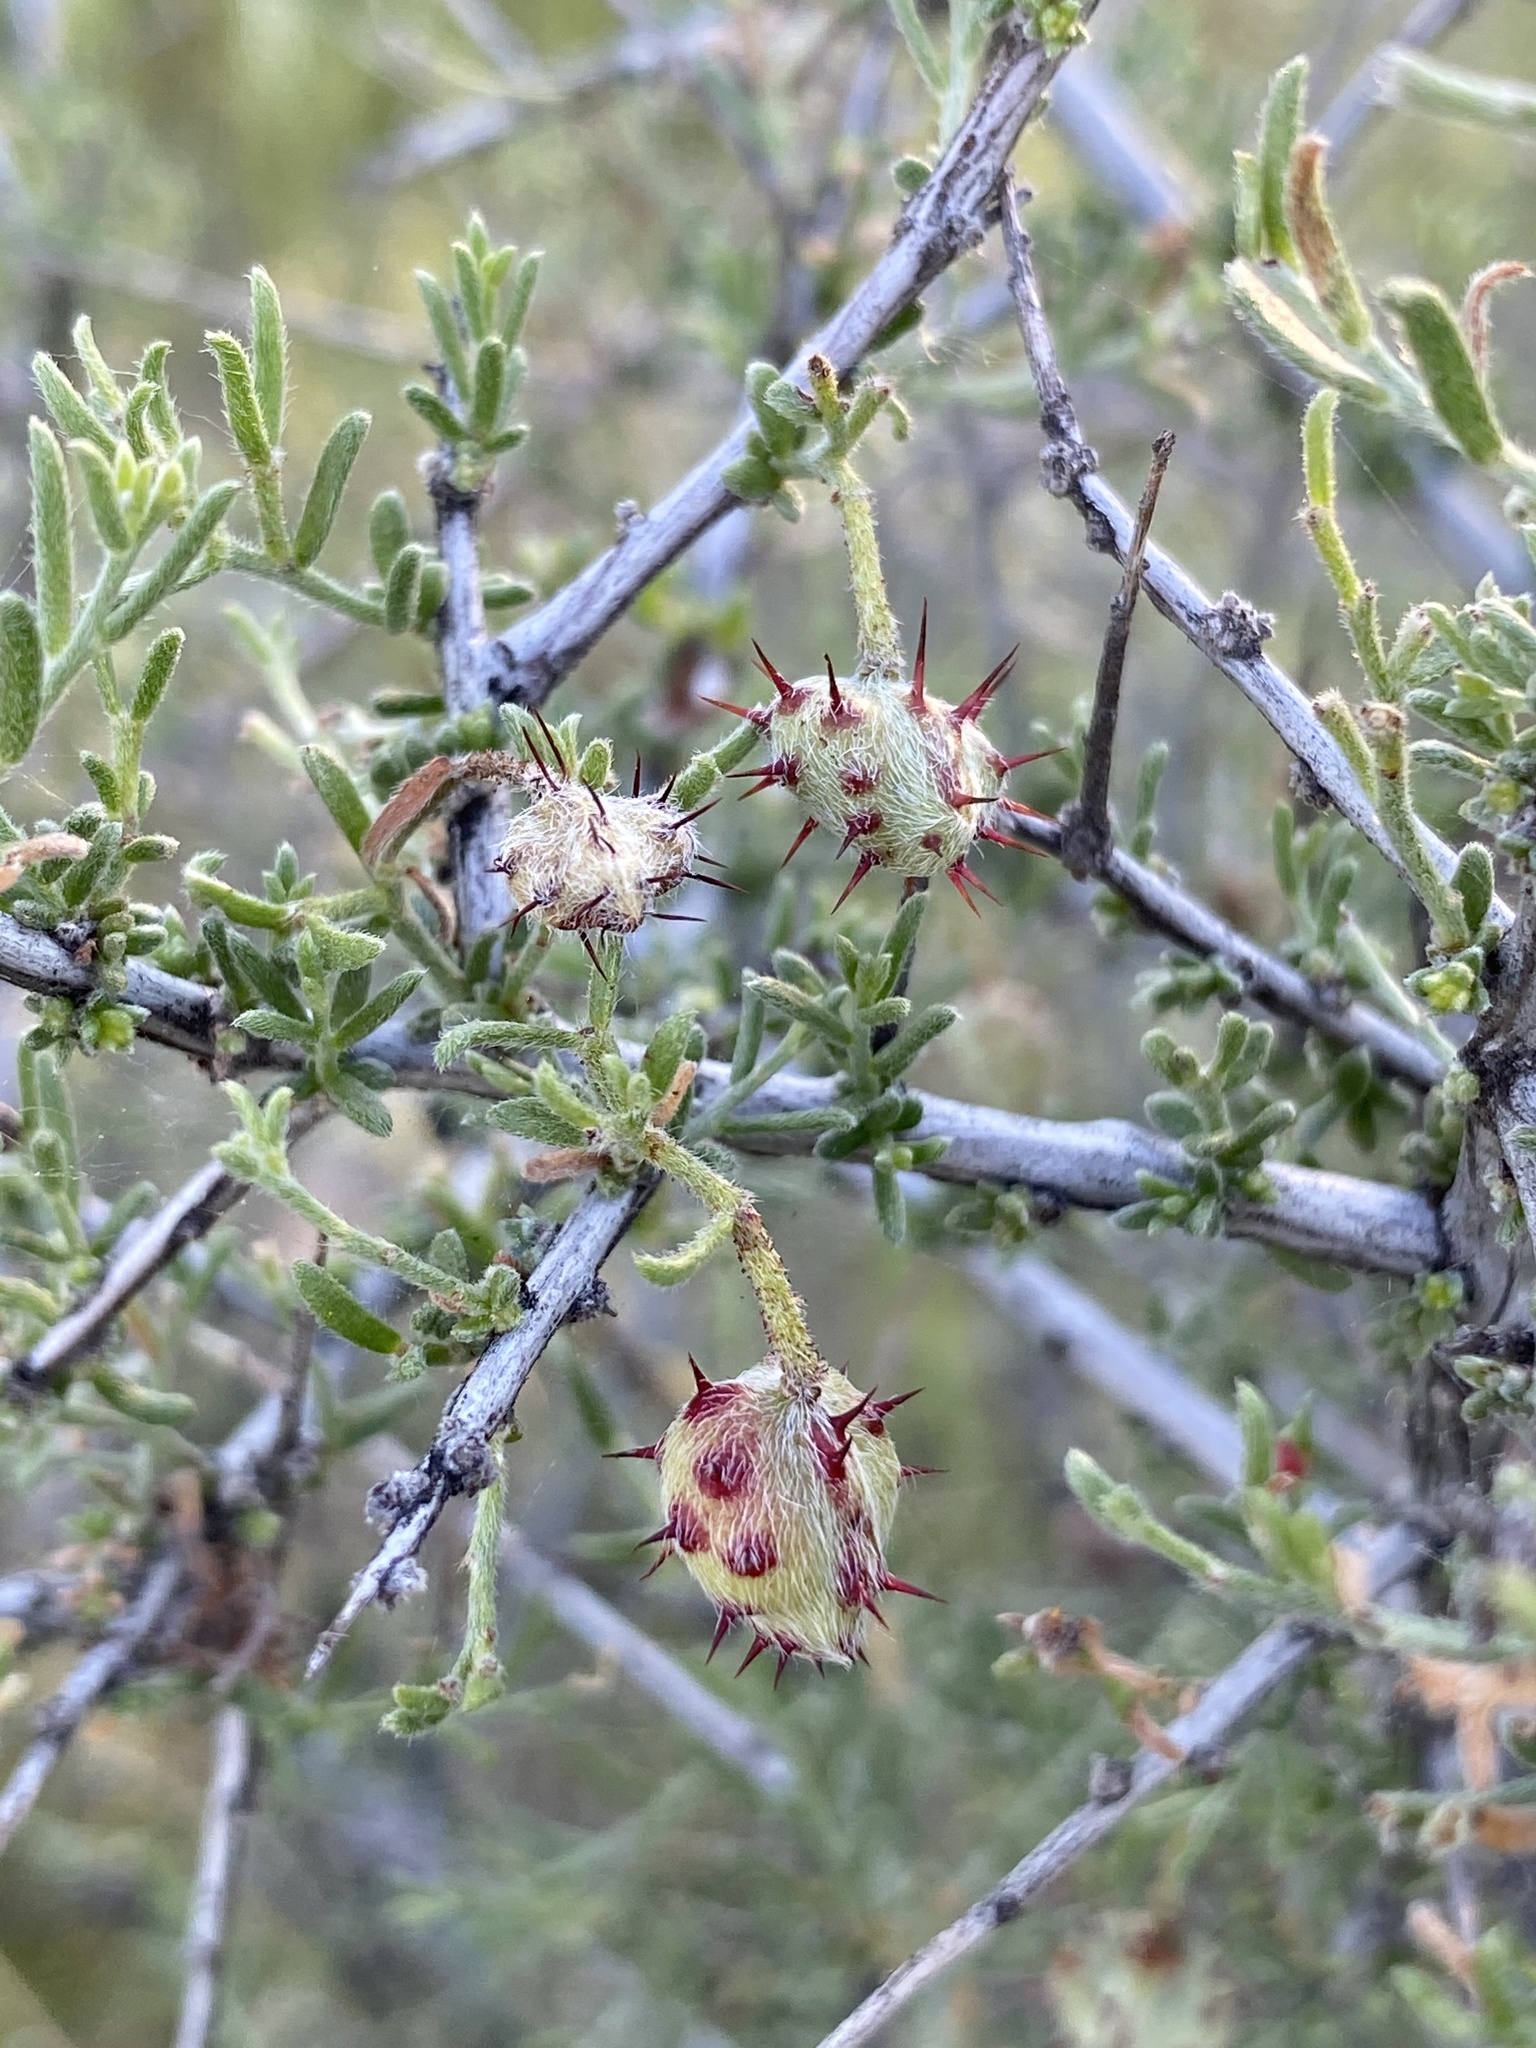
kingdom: Plantae
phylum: Tracheophyta
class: Magnoliopsida
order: Zygophyllales
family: Krameriaceae
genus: Krameria
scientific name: Krameria erecta
